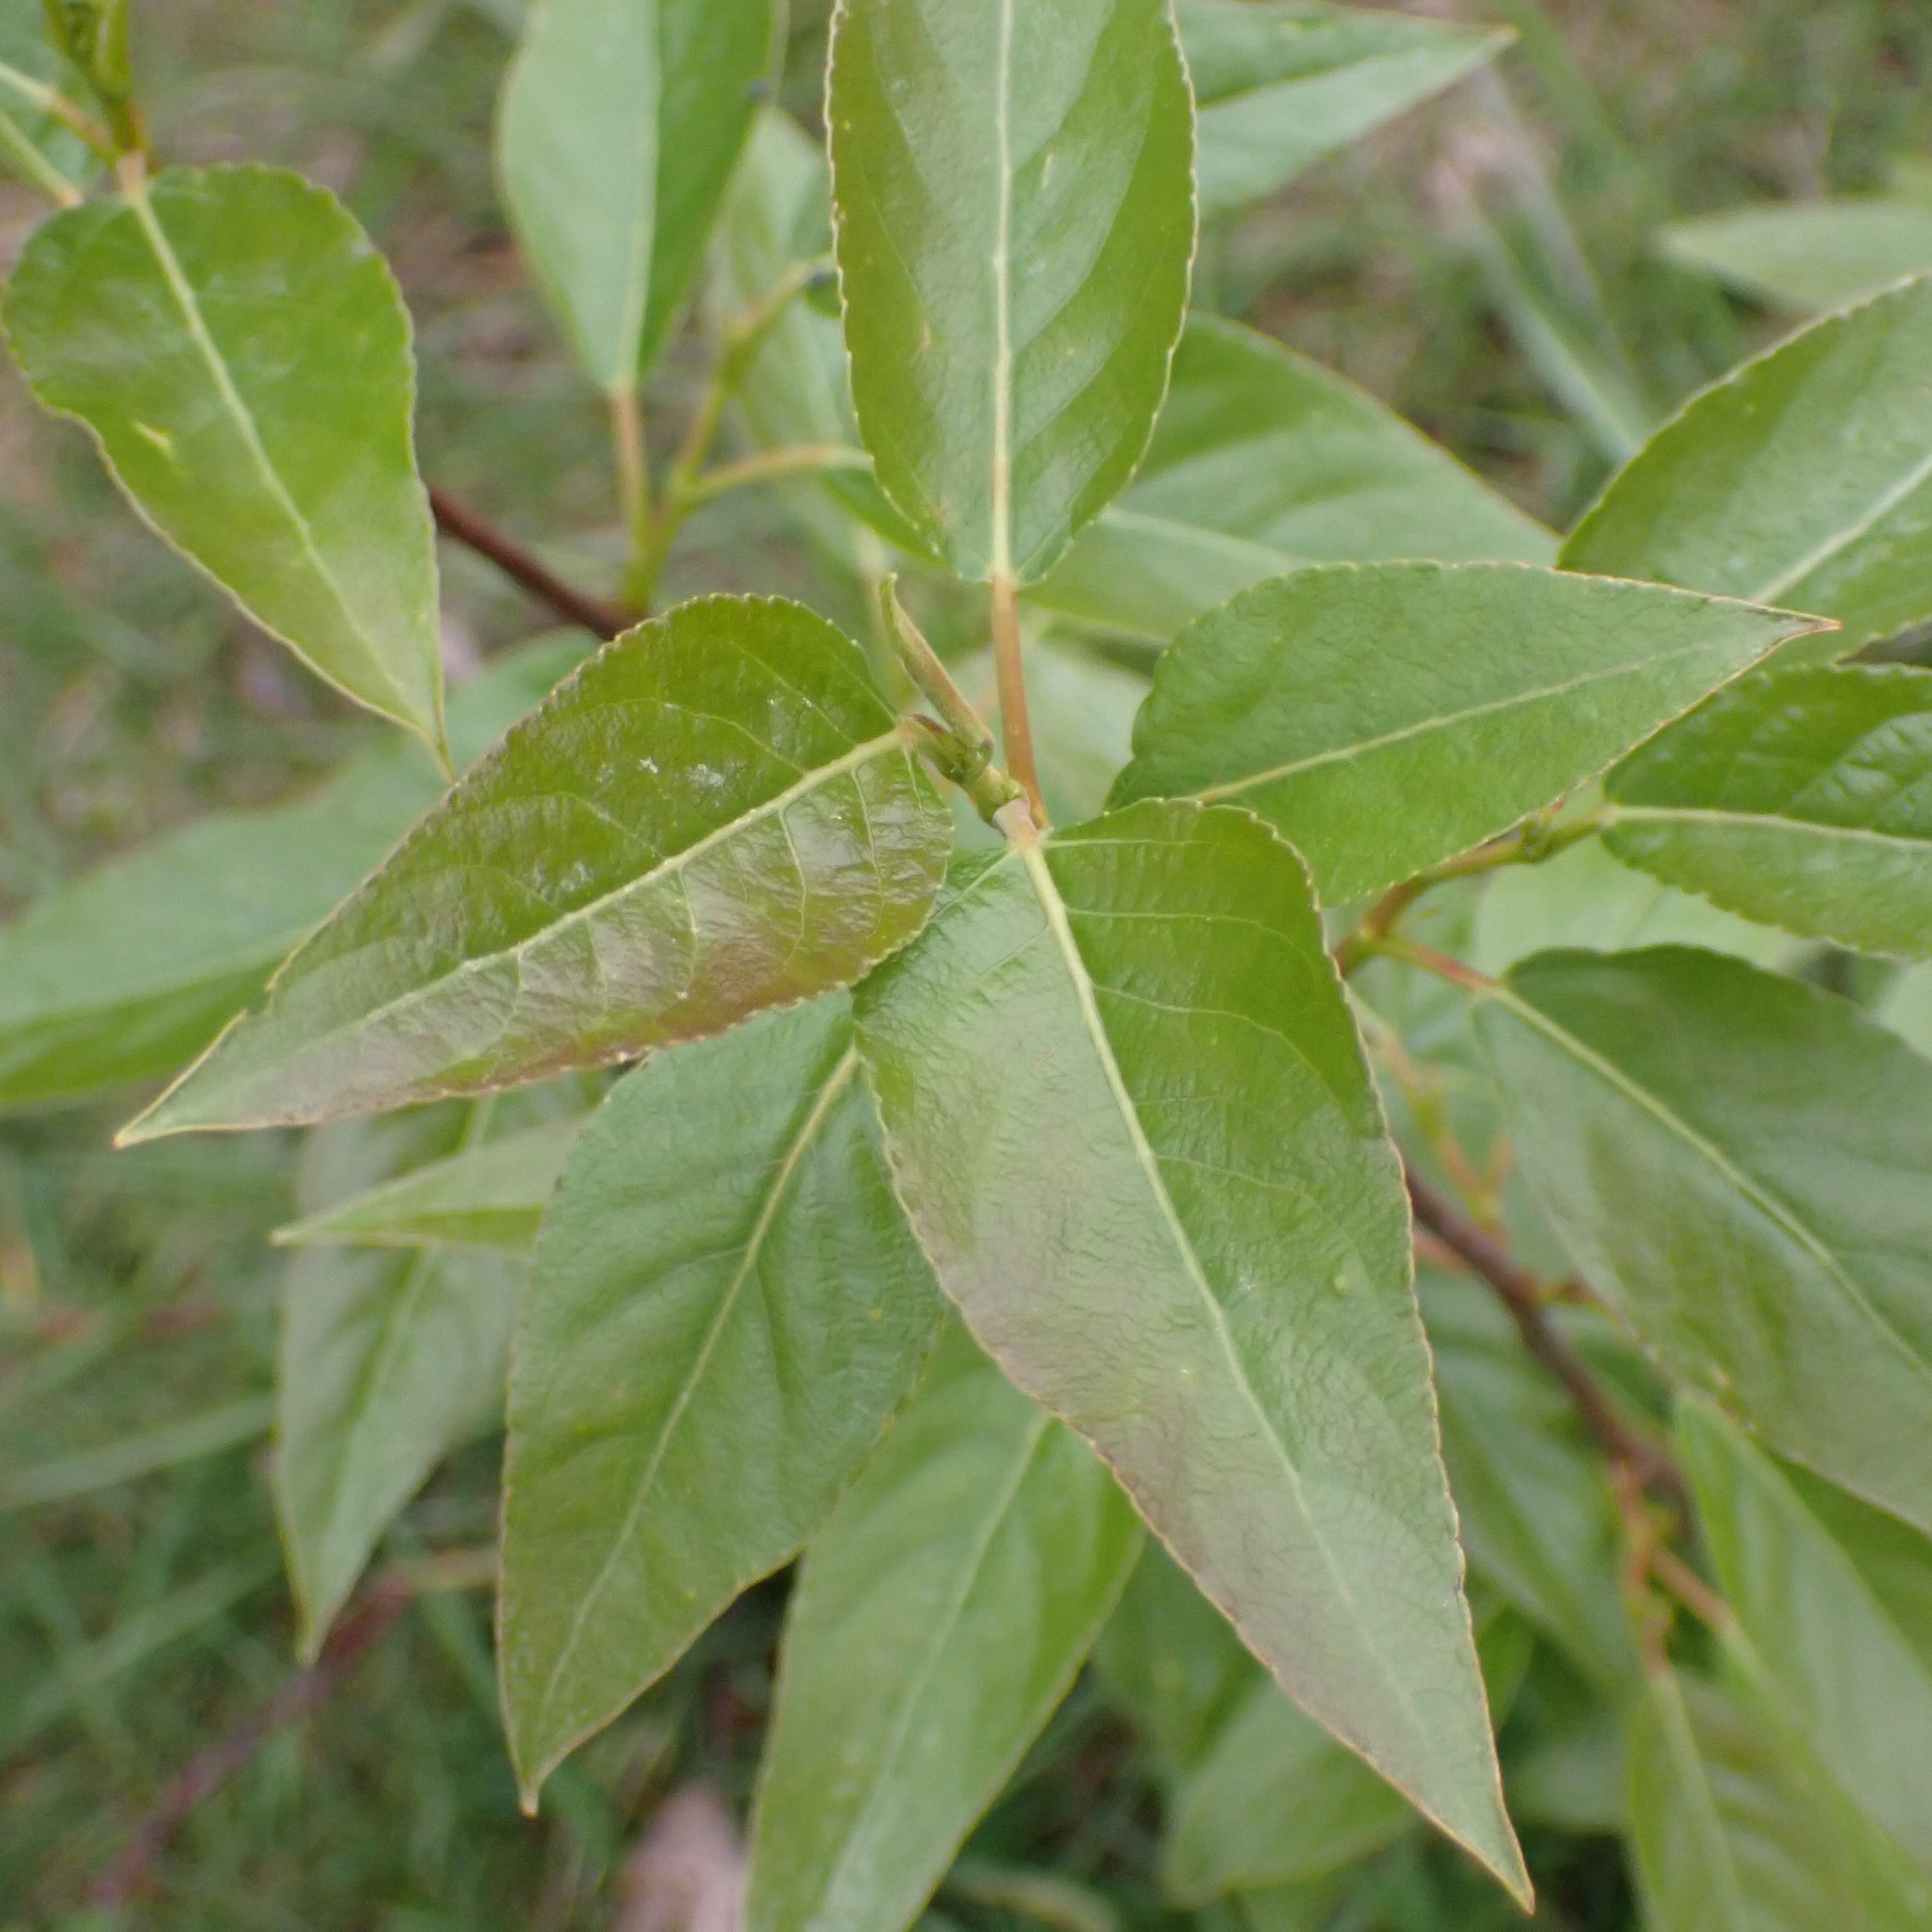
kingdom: Plantae
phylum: Tracheophyta
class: Magnoliopsida
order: Malpighiales
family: Salicaceae
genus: Populus
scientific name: Populus trichocarpa
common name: Black cottonwood
